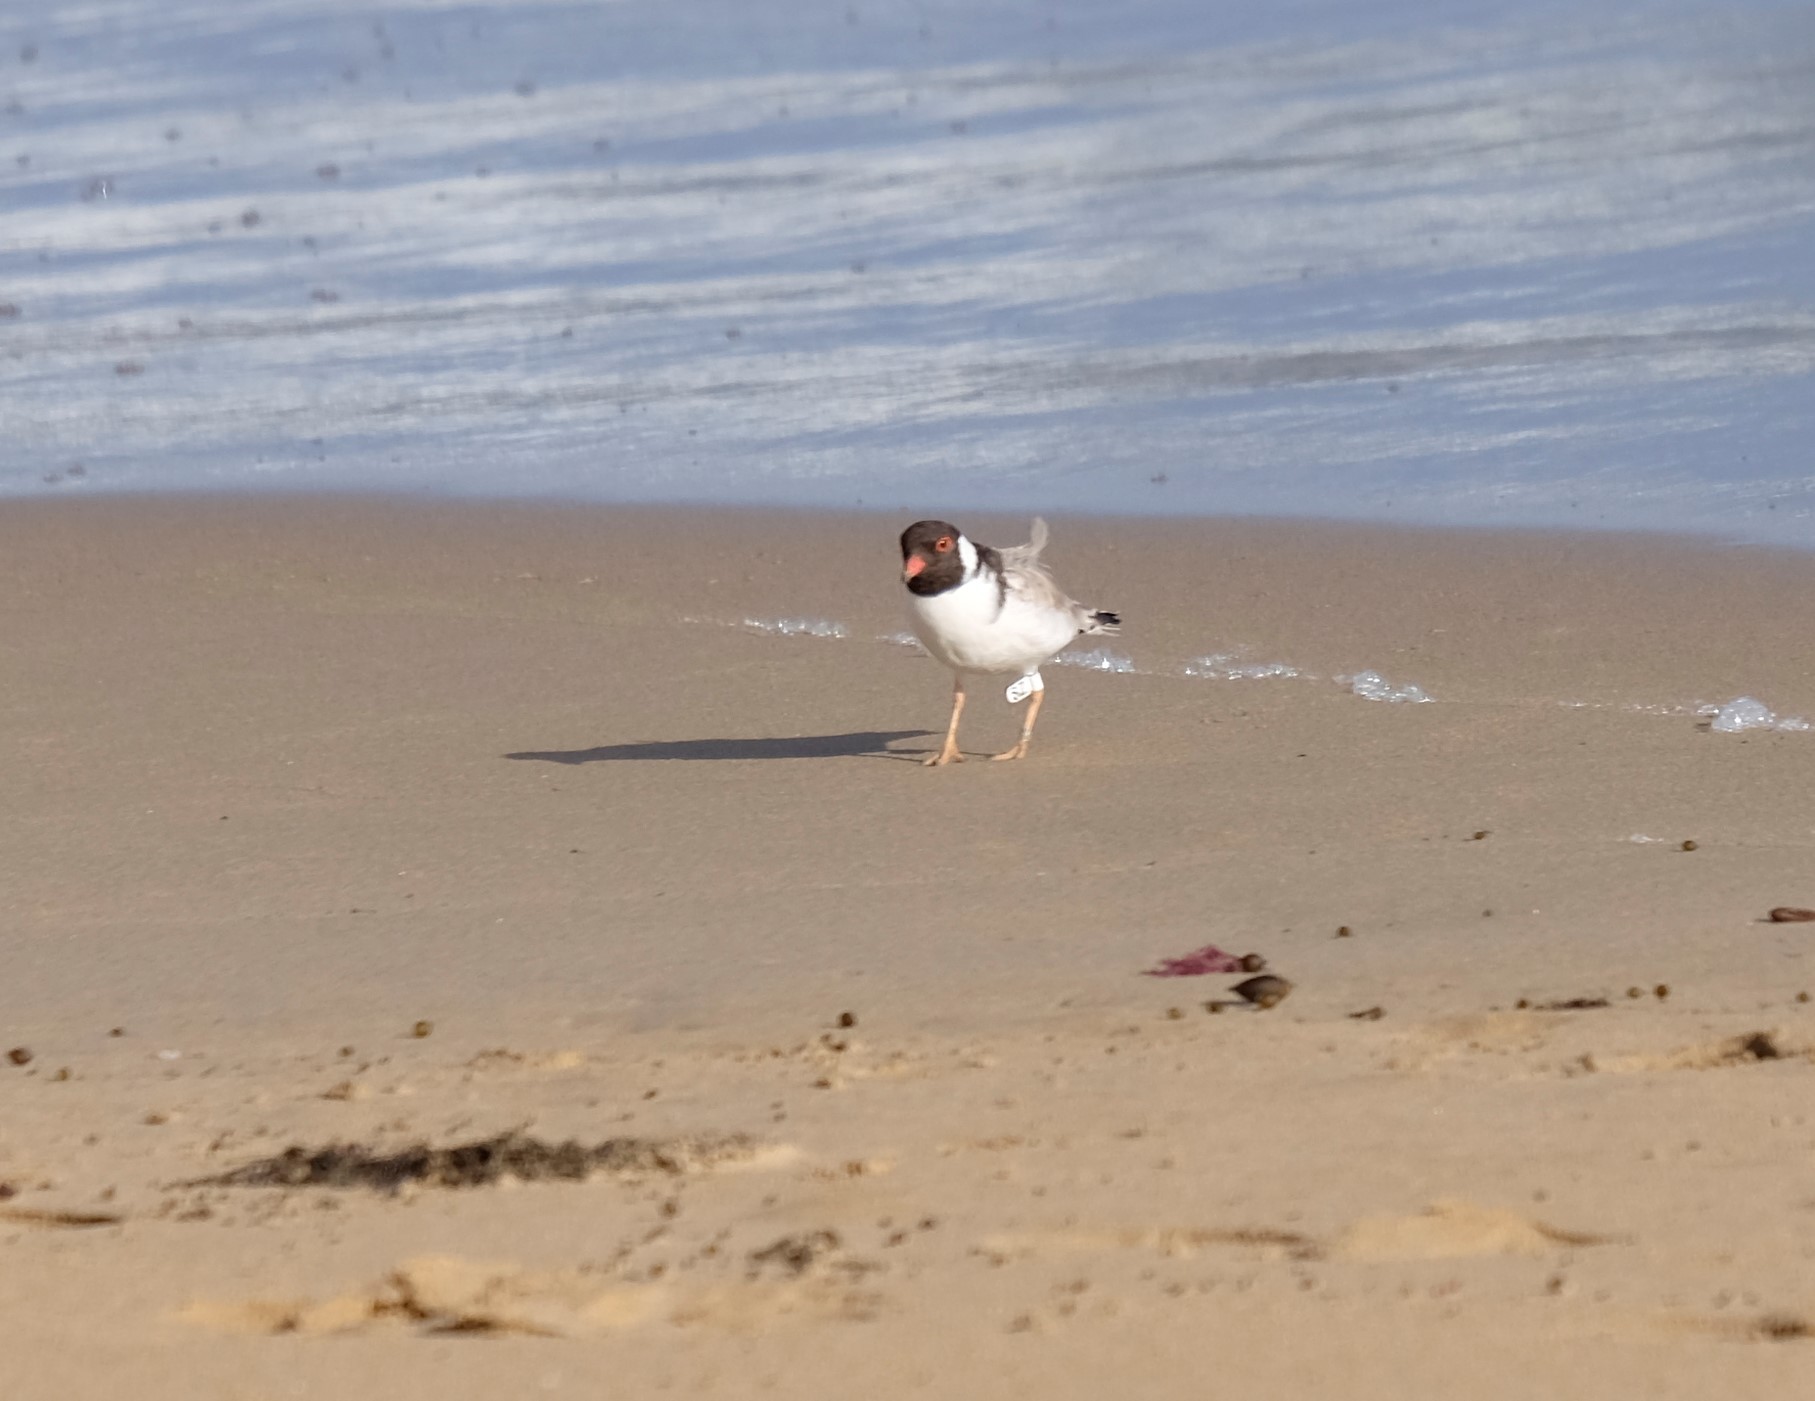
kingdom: Animalia
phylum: Chordata
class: Aves
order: Charadriiformes
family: Charadriidae
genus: Thinornis
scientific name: Thinornis cucullatus
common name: Hooded dotterel
